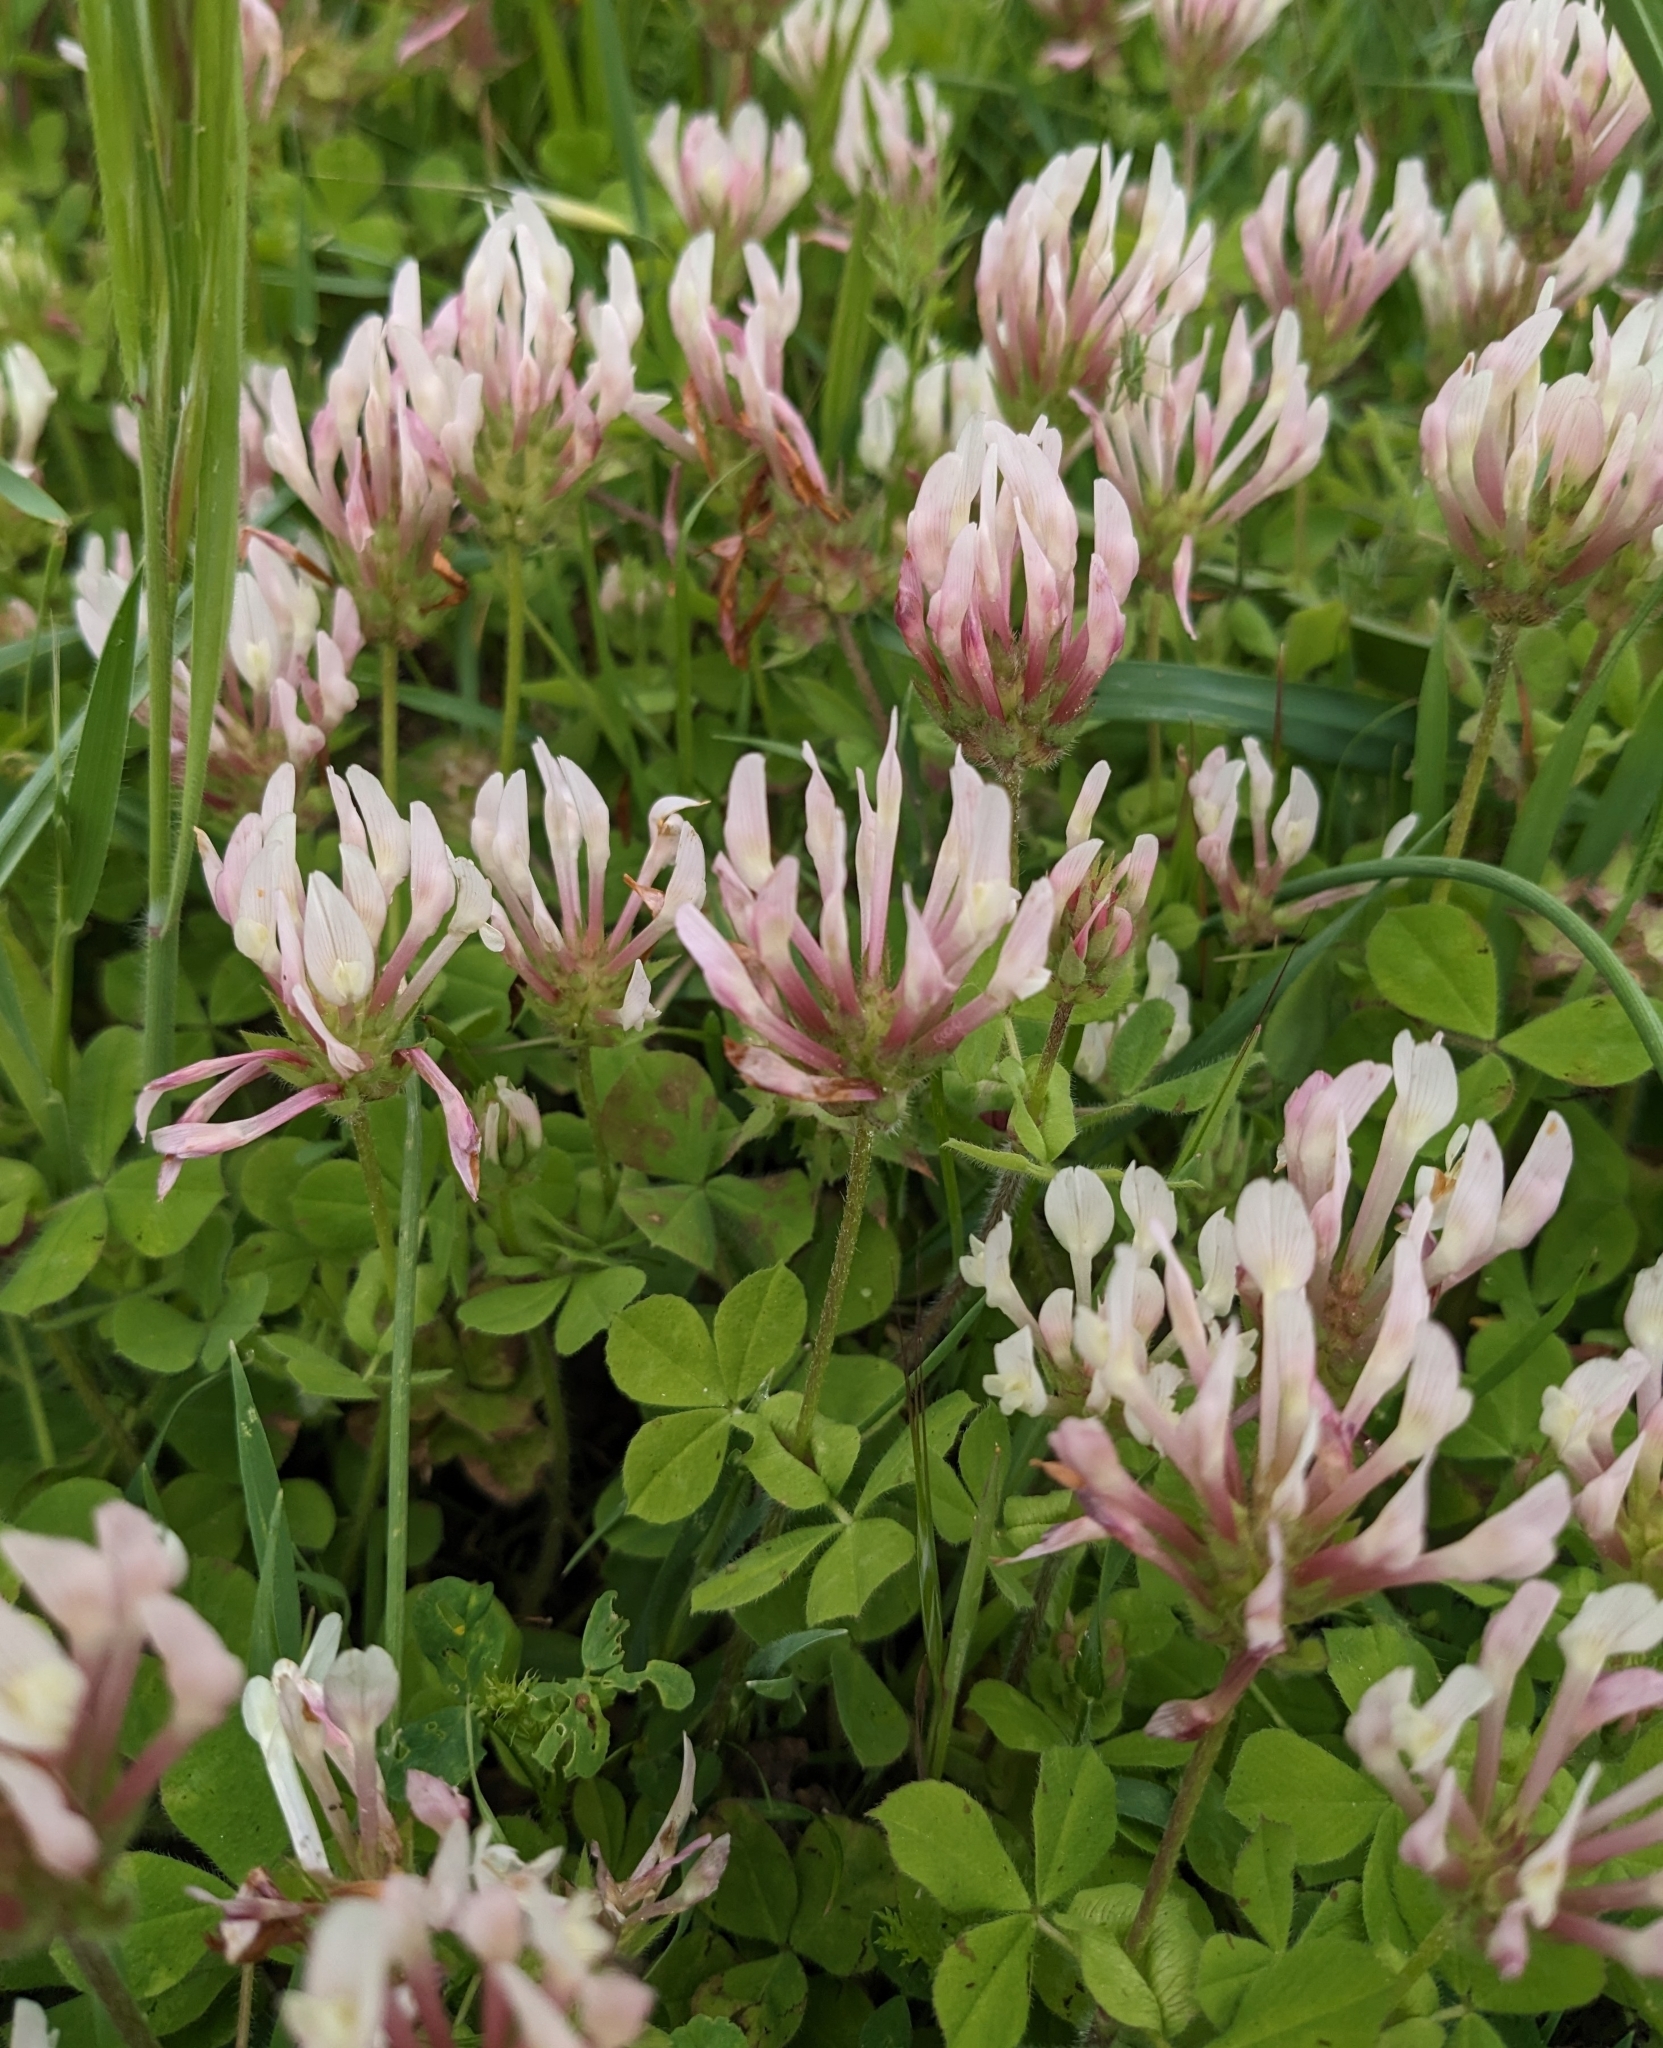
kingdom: Plantae
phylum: Tracheophyta
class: Magnoliopsida
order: Fabales
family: Fabaceae
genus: Trifolium
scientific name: Trifolium clypeatum
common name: Shield clover
